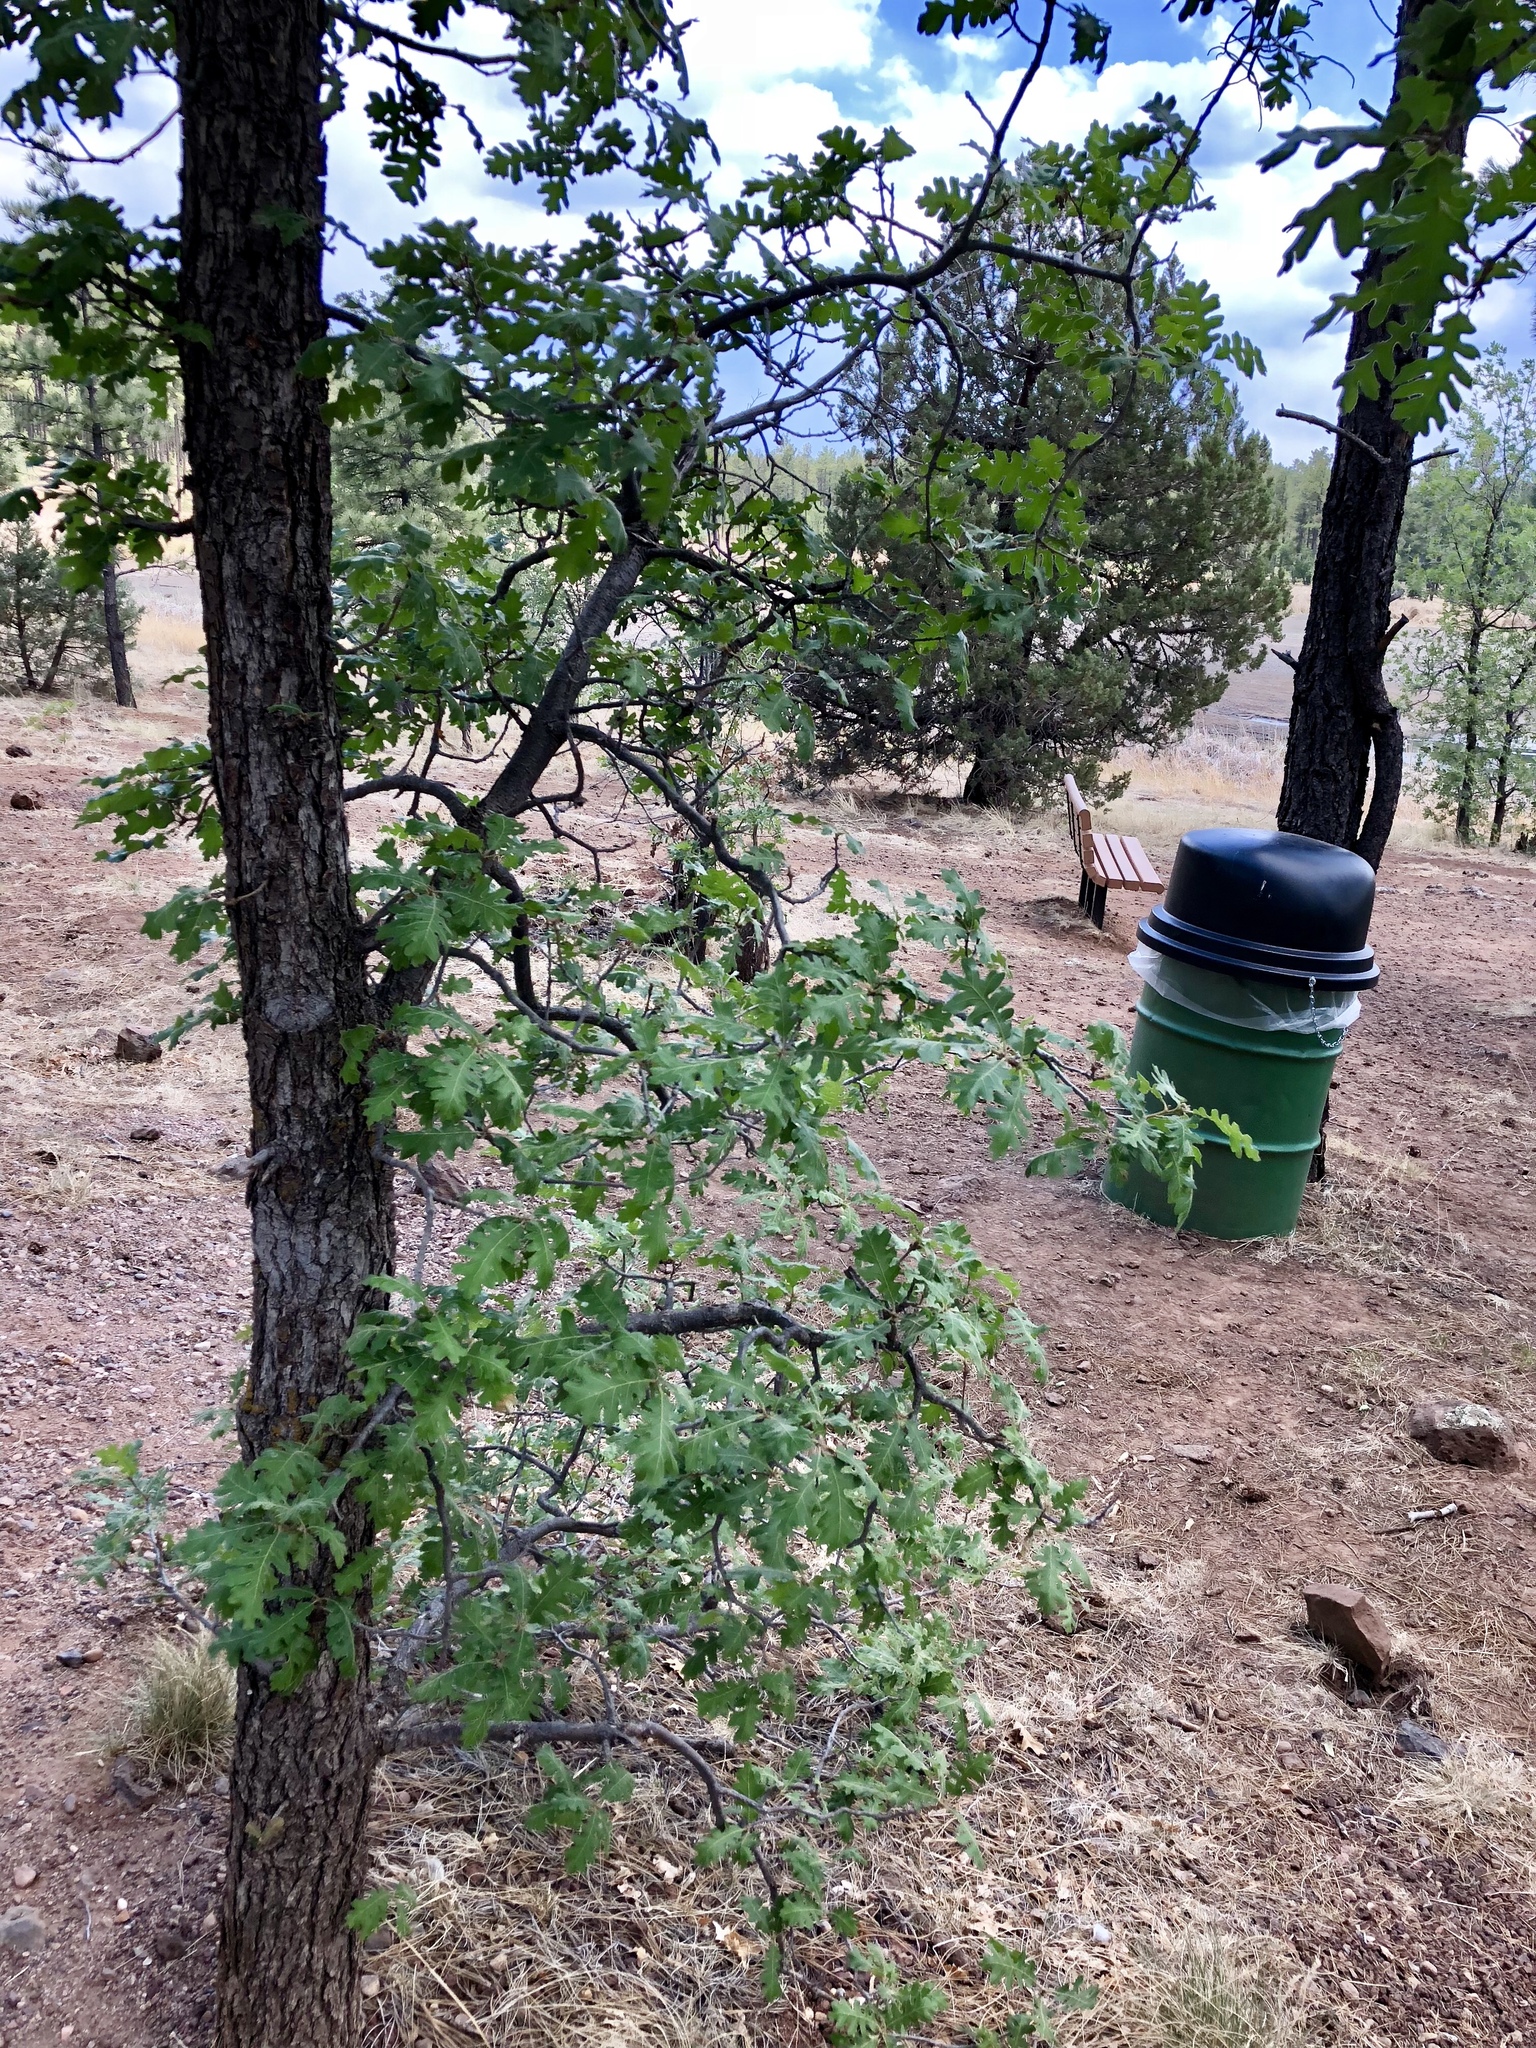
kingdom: Plantae
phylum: Tracheophyta
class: Magnoliopsida
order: Fagales
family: Fagaceae
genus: Quercus
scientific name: Quercus gambelii
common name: Gambel oak
